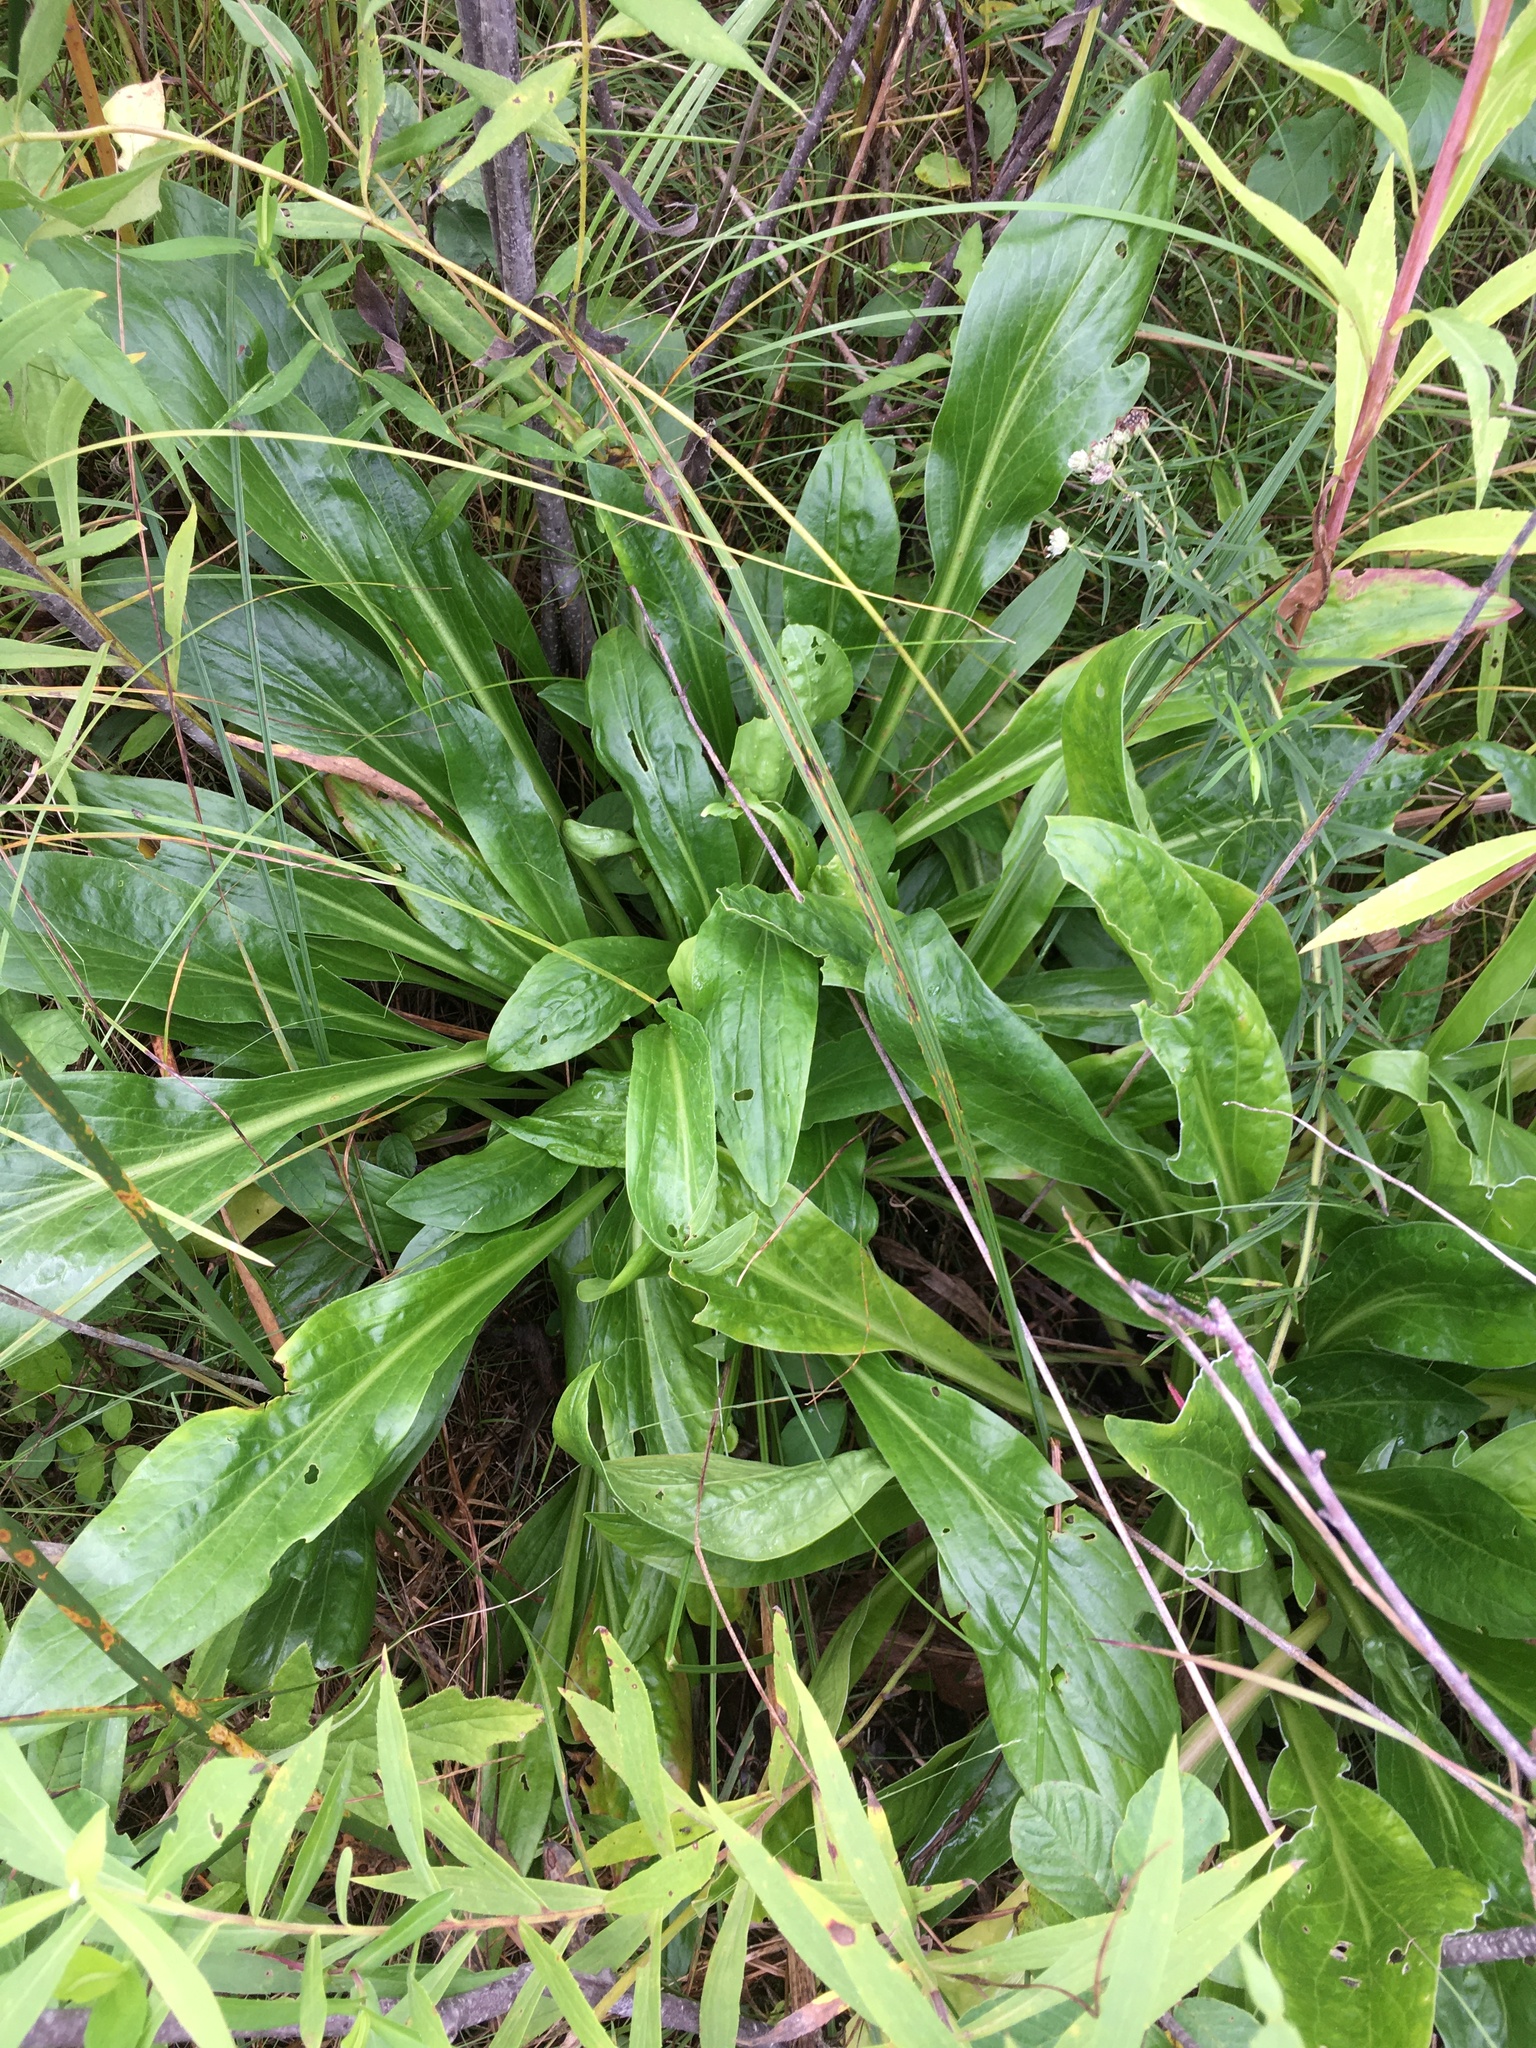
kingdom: Plantae
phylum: Tracheophyta
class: Magnoliopsida
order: Dipsacales
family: Caprifoliaceae
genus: Valeriana
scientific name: Valeriana edulis
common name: Taproot valerian
